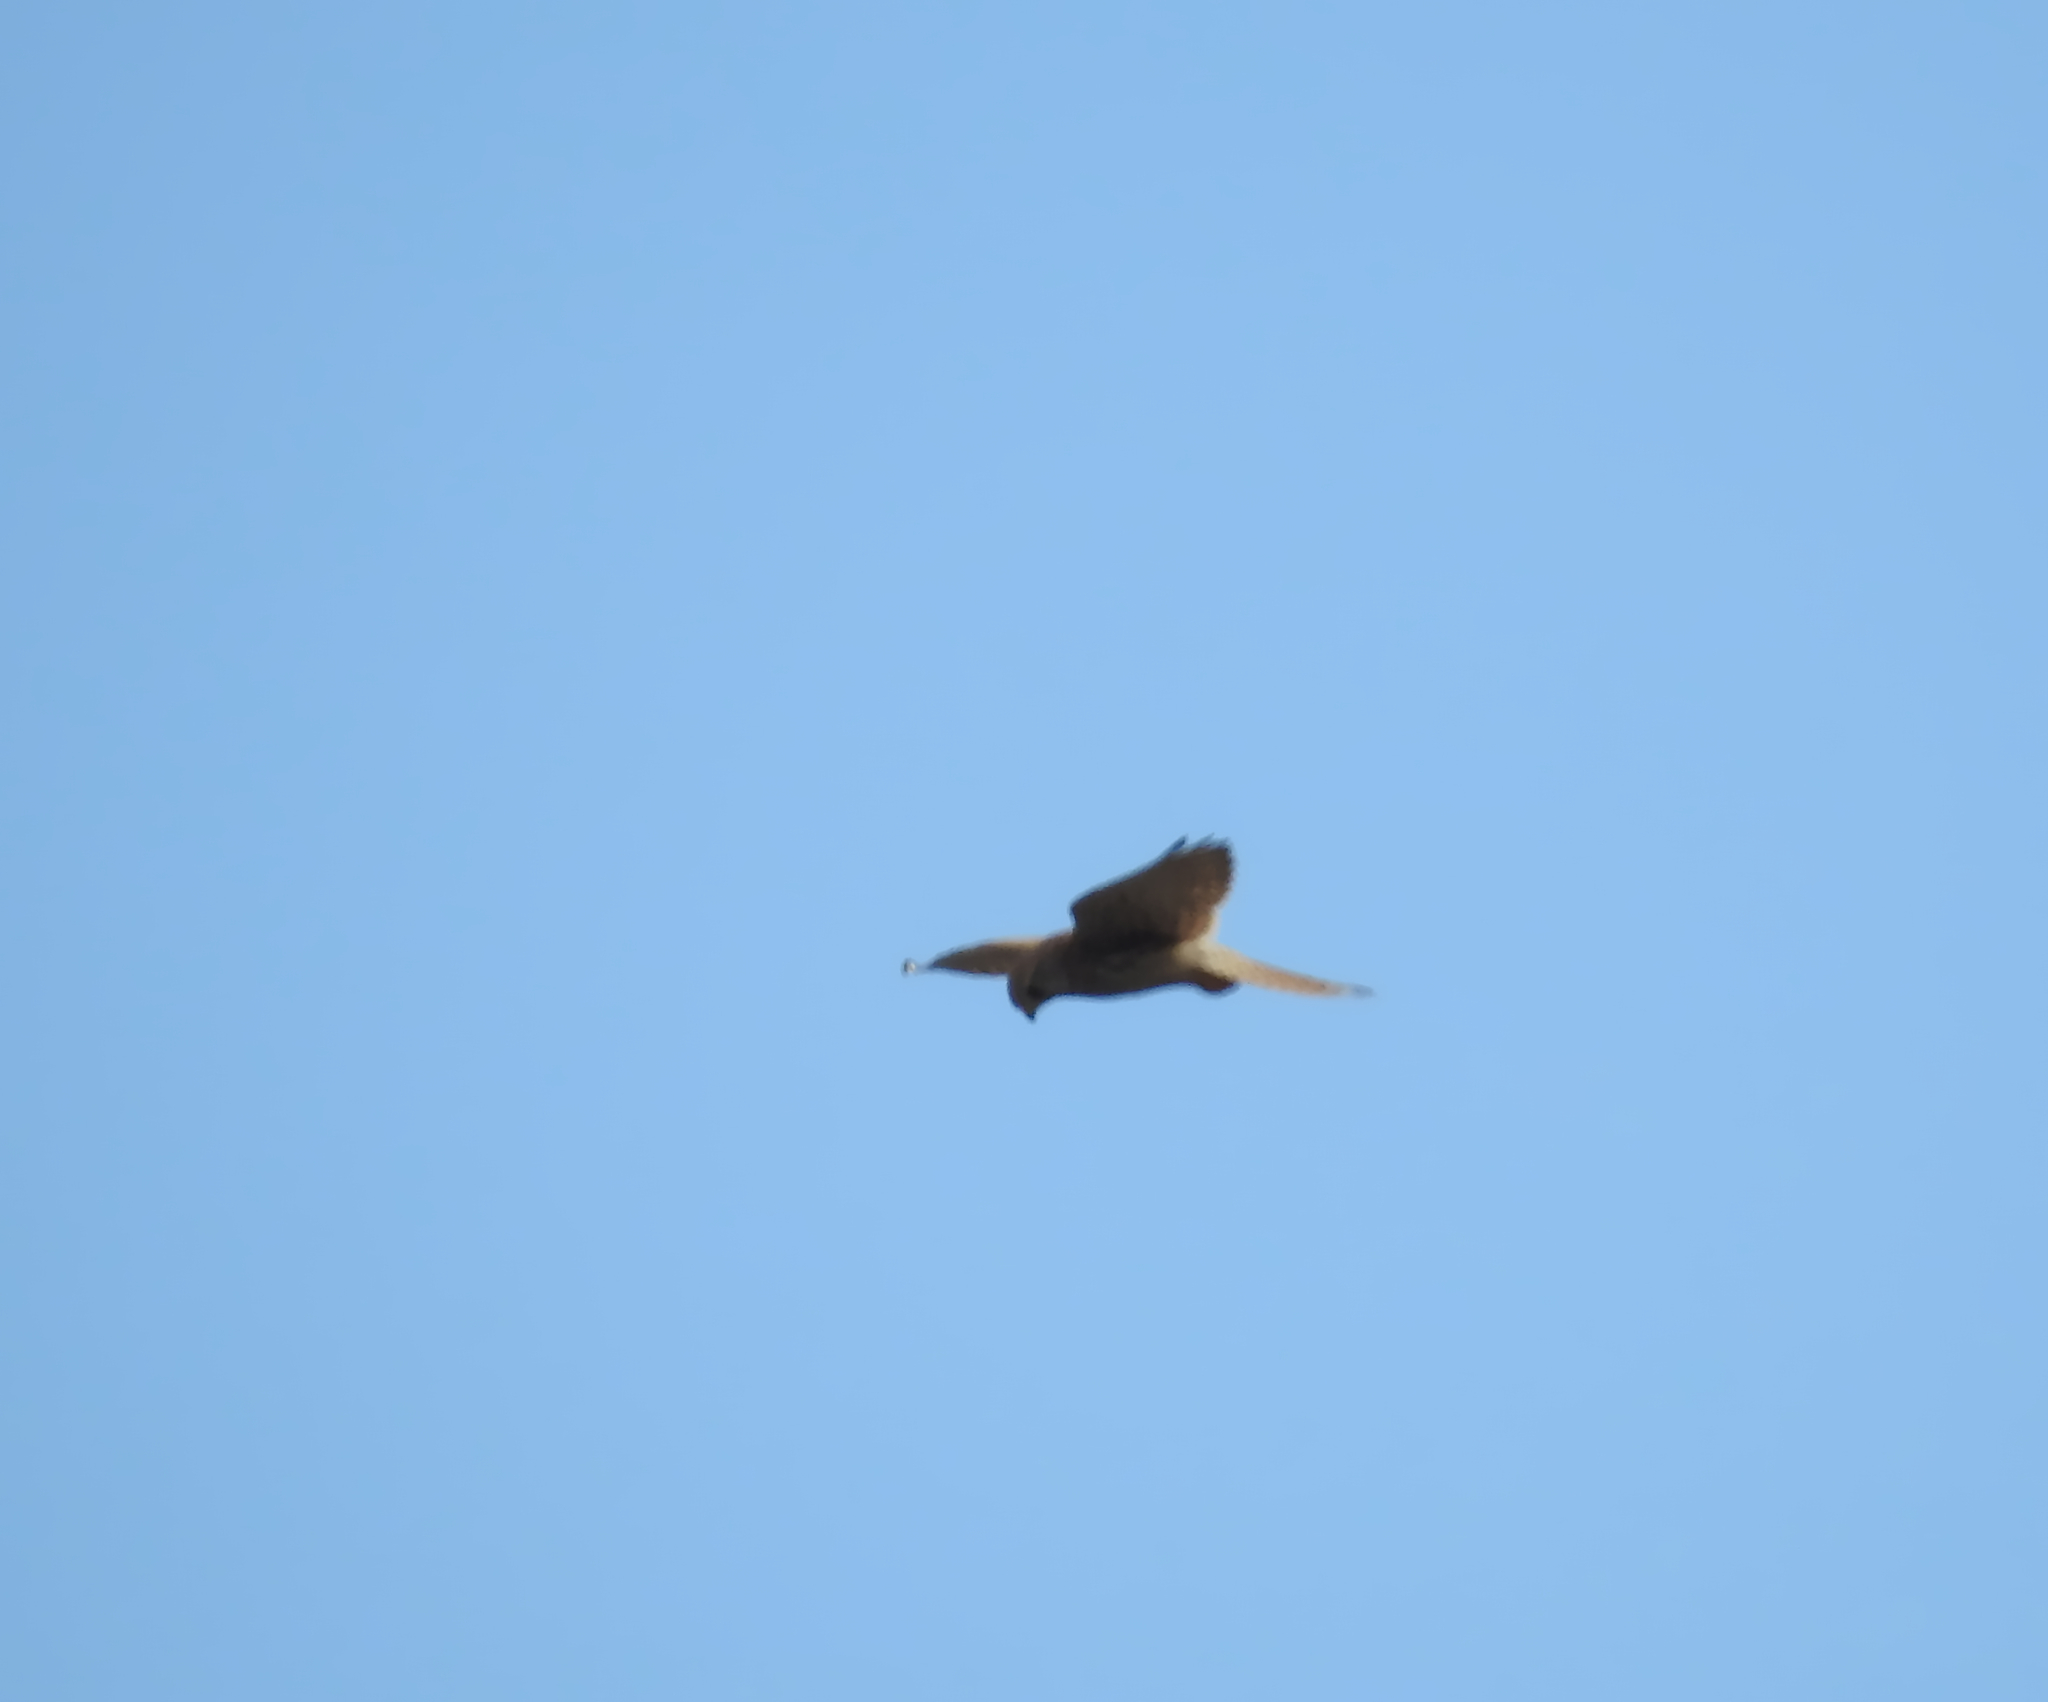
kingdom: Animalia
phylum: Chordata
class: Aves
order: Falconiformes
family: Falconidae
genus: Falco
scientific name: Falco tinnunculus
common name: Common kestrel
